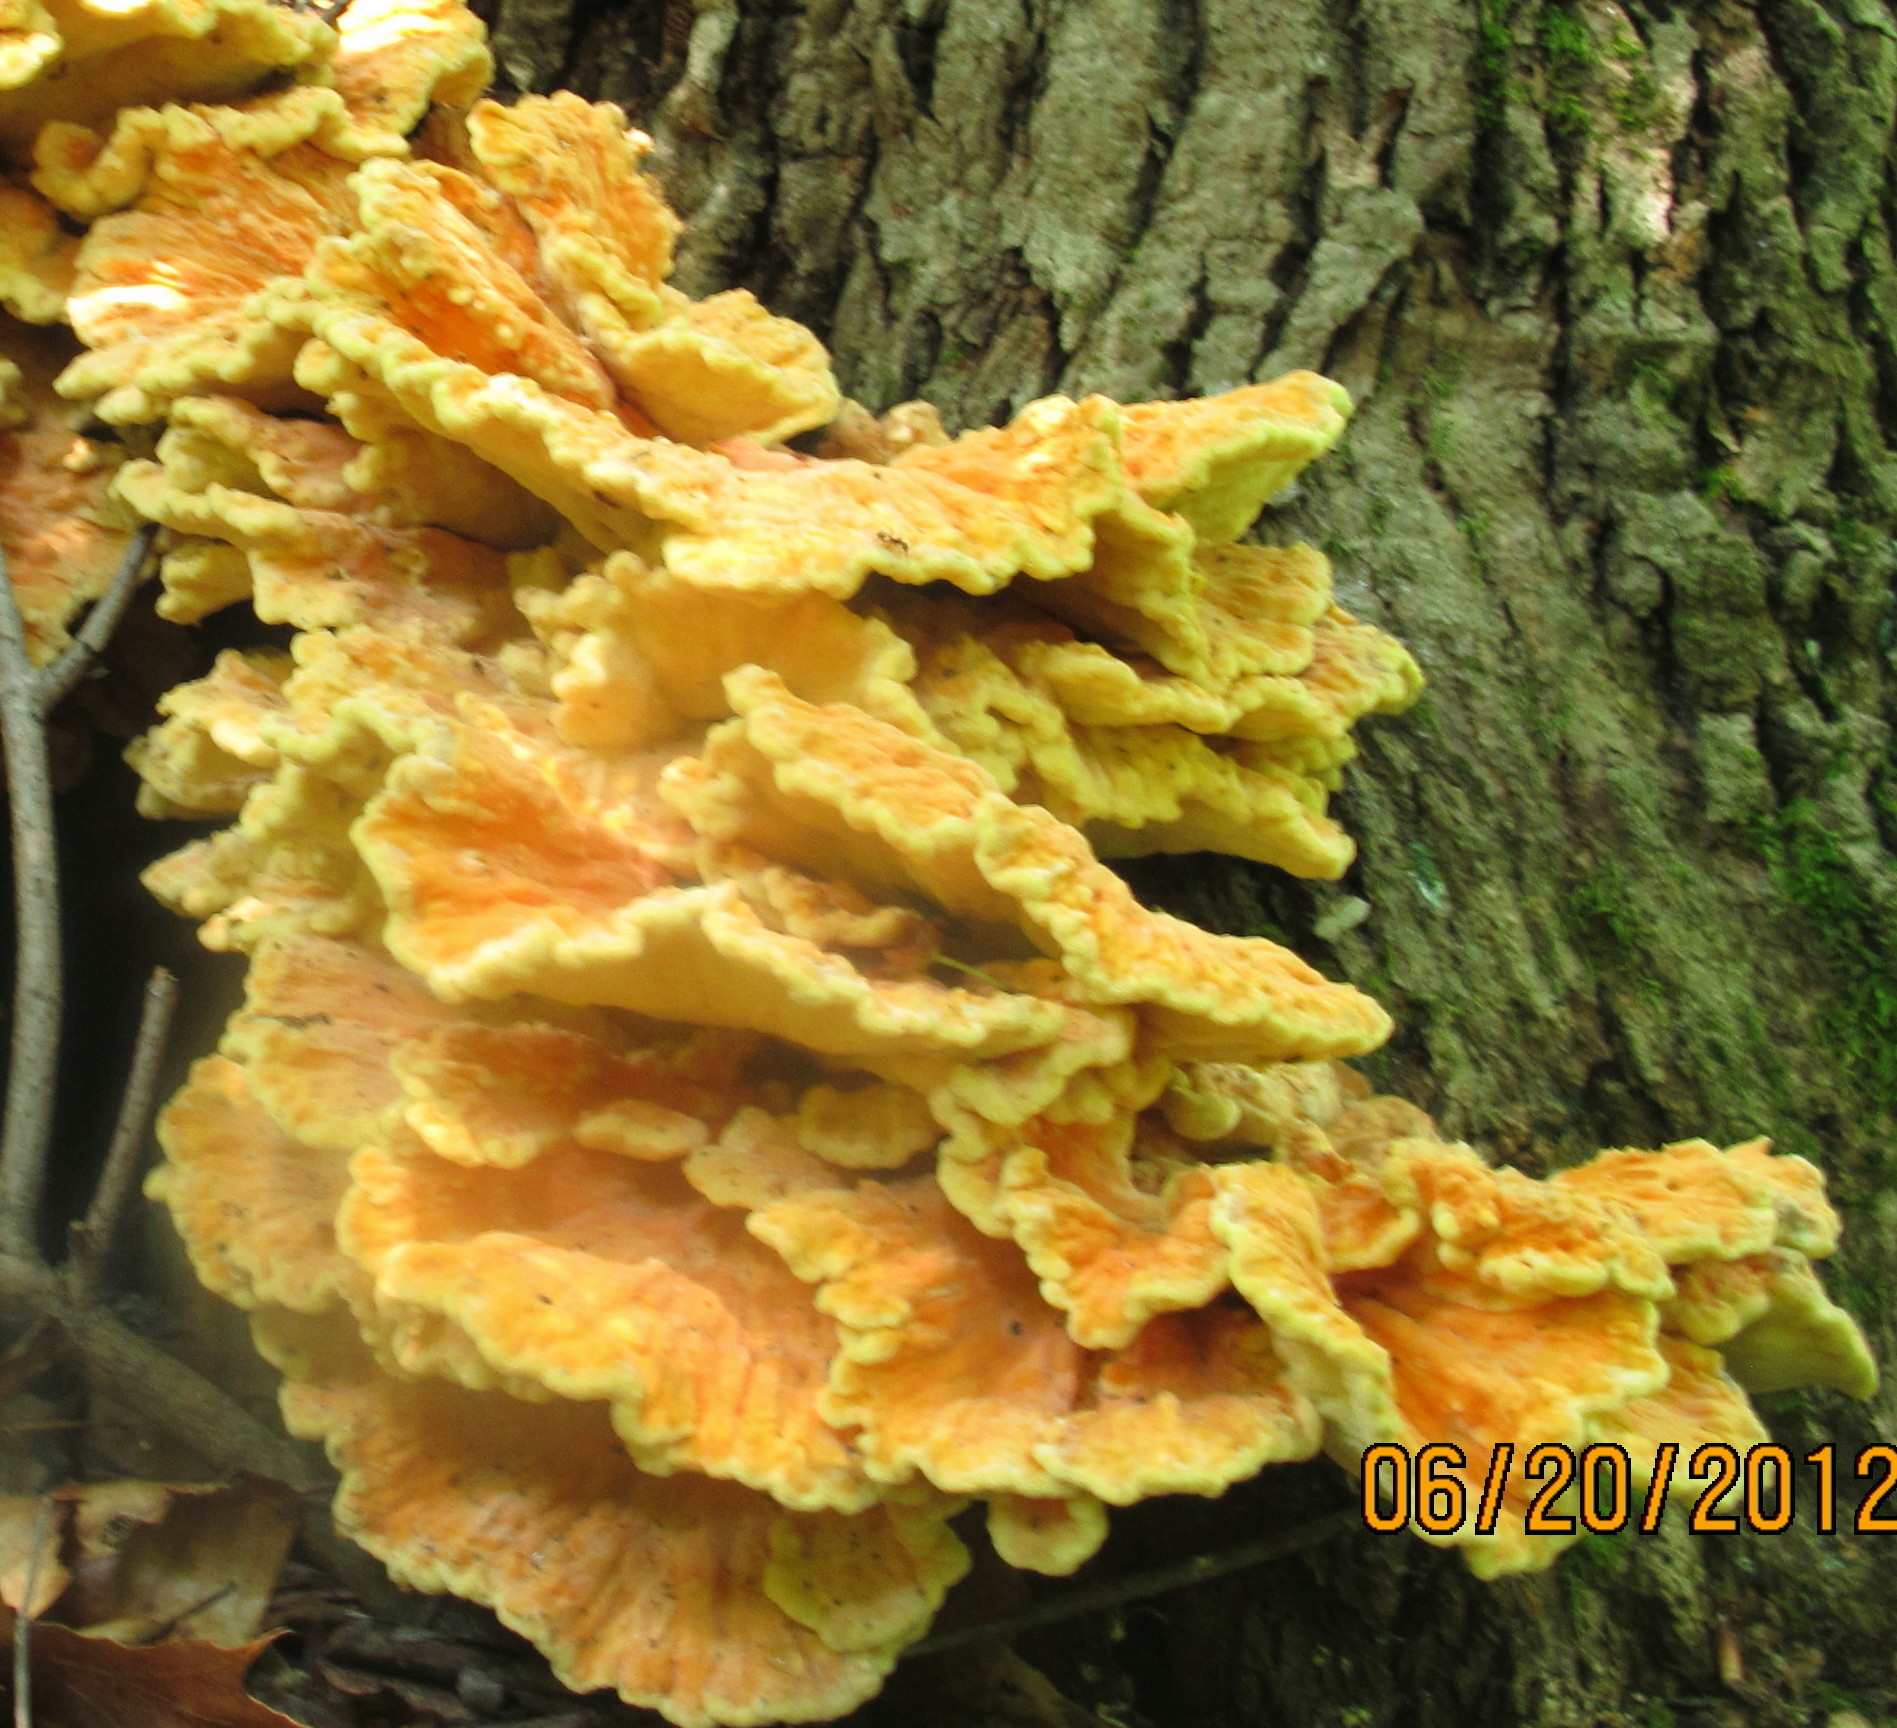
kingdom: Fungi
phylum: Basidiomycota
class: Agaricomycetes
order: Polyporales
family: Laetiporaceae
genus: Laetiporus
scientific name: Laetiporus sulphureus
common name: Chicken of the woods
